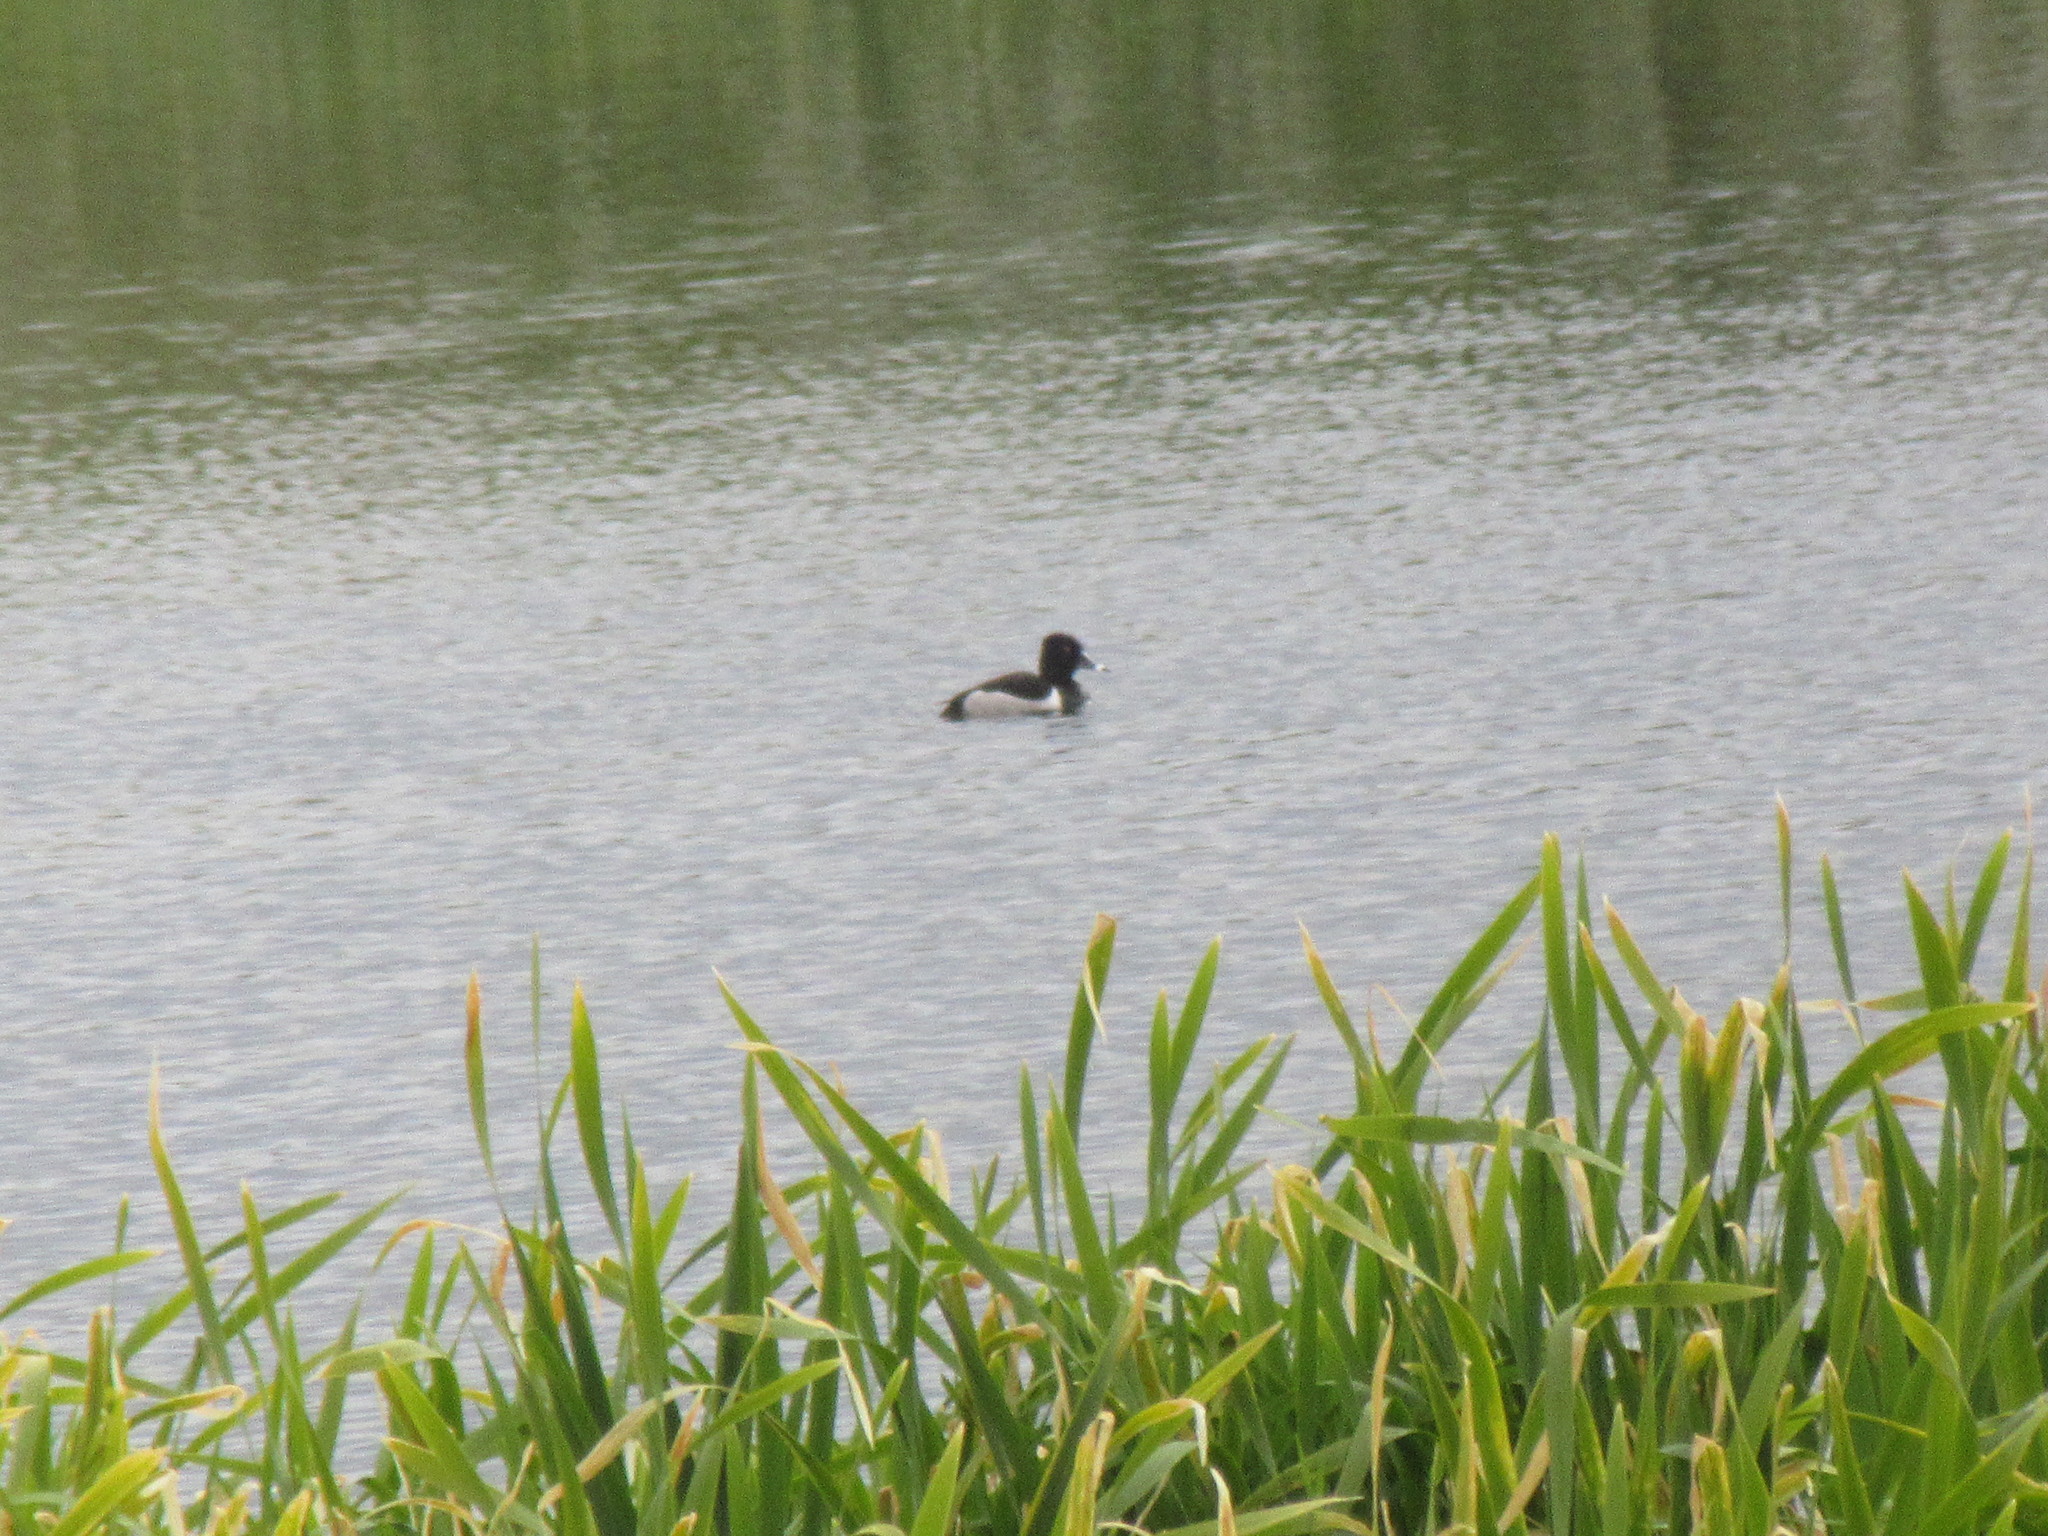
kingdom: Animalia
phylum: Chordata
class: Aves
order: Anseriformes
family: Anatidae
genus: Aythya
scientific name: Aythya collaris
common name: Ring-necked duck
